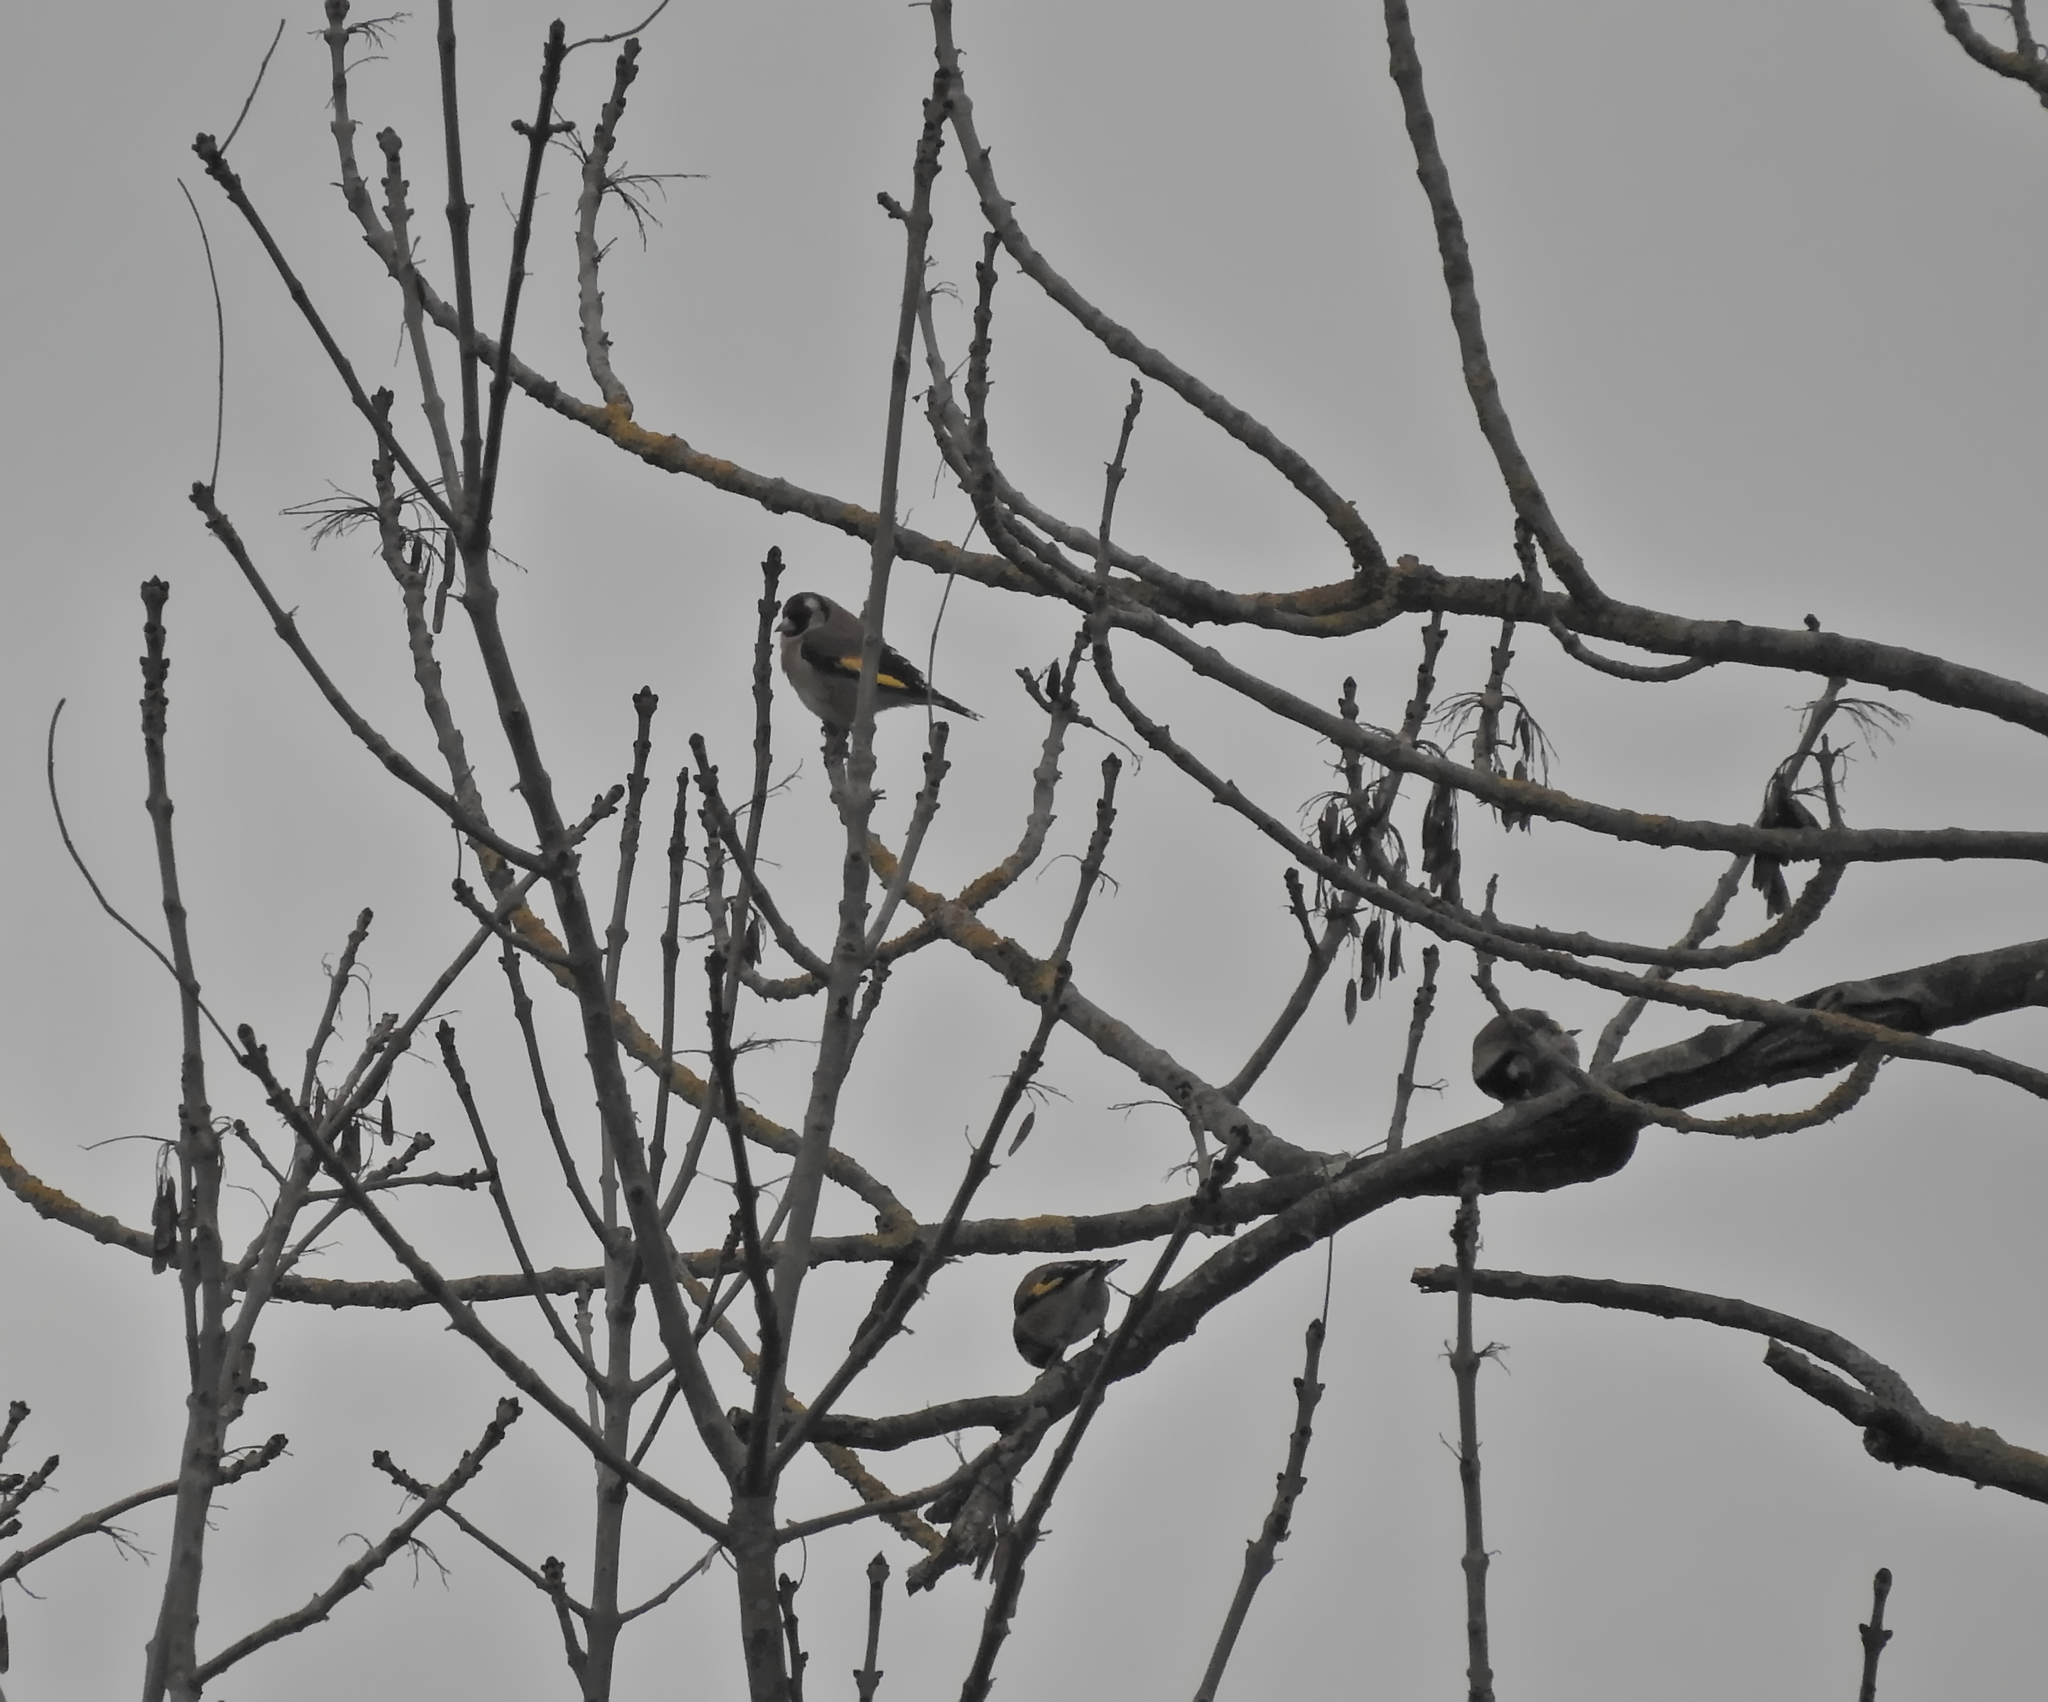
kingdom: Animalia
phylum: Chordata
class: Aves
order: Passeriformes
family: Fringillidae
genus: Carduelis
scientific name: Carduelis carduelis
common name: European goldfinch
